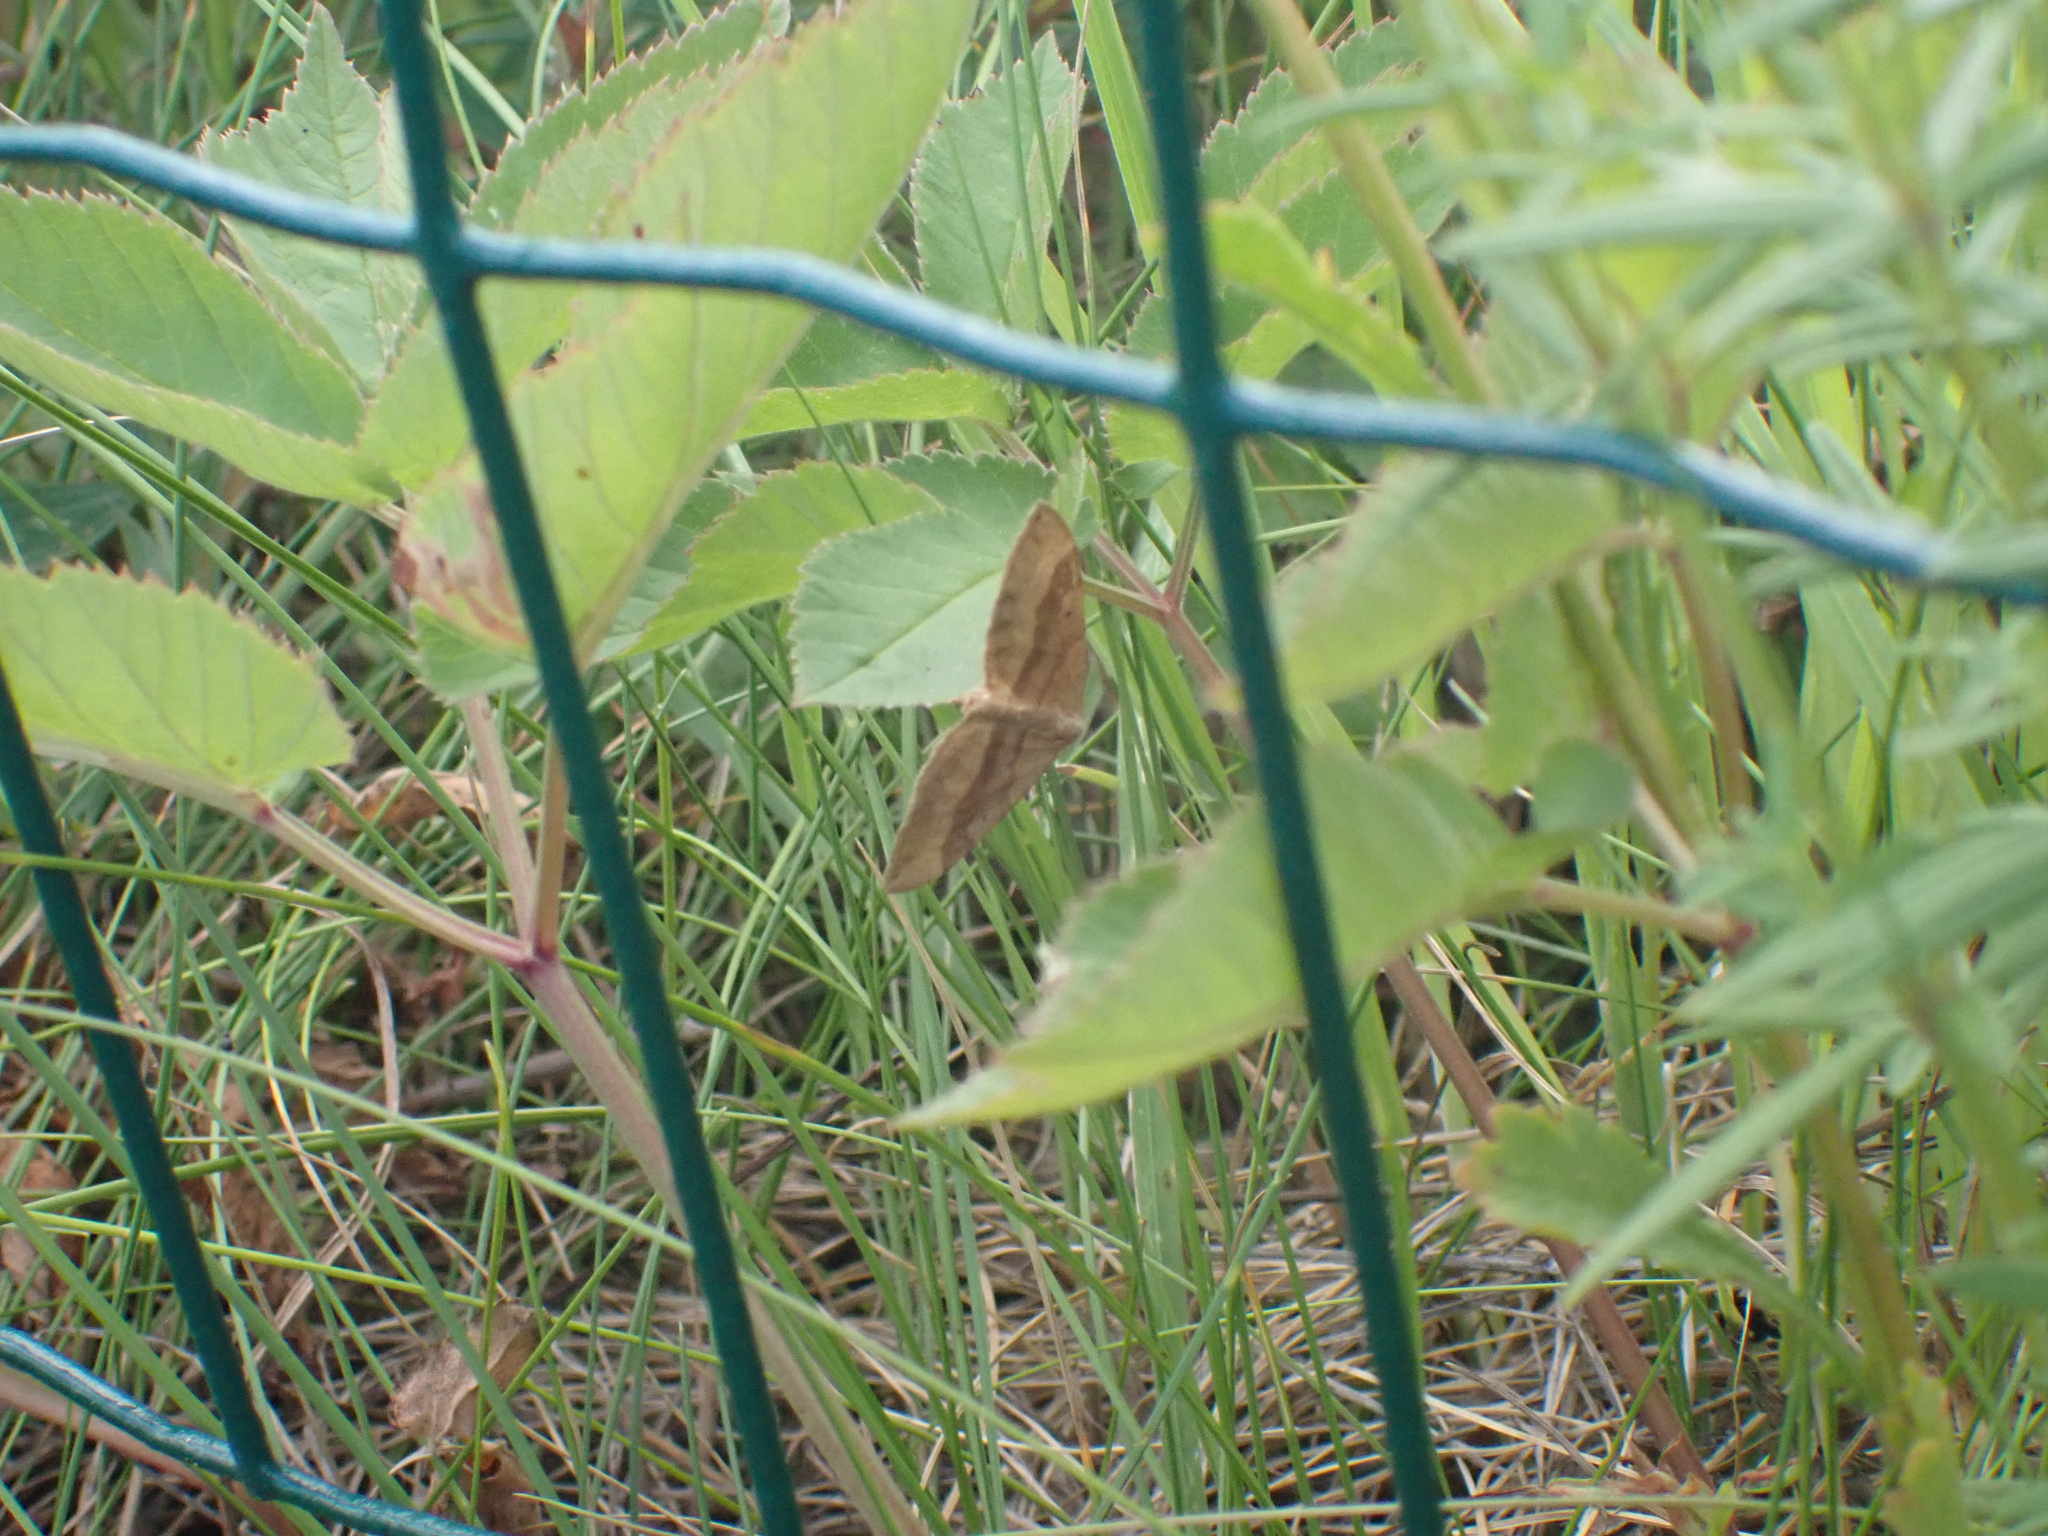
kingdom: Animalia
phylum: Arthropoda
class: Insecta
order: Lepidoptera
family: Geometridae
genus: Scotopteryx
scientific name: Scotopteryx chenopodiata
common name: Shaded broad-bar
